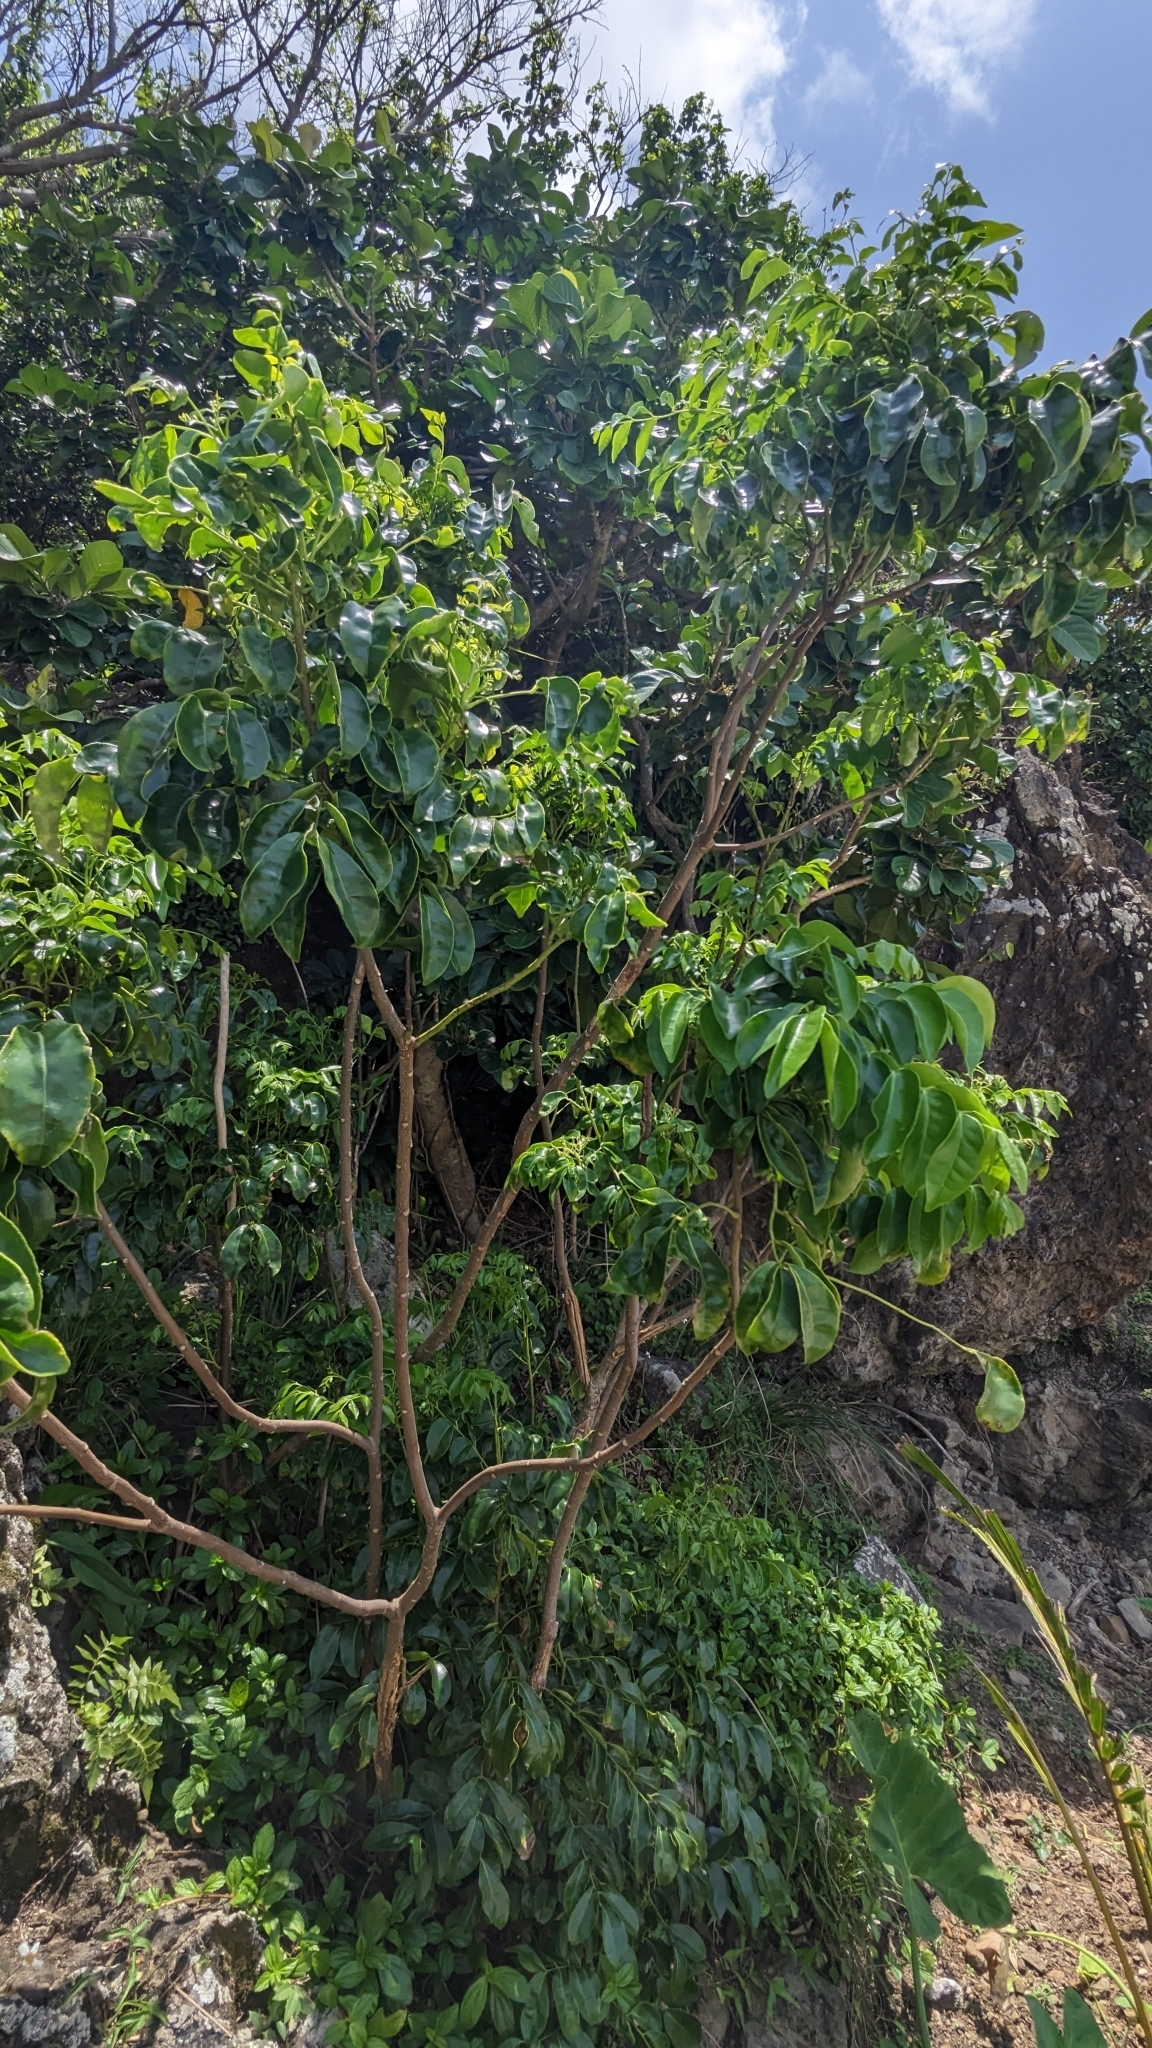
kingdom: Plantae
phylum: Tracheophyta
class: Magnoliopsida
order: Sapindales
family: Rutaceae
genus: Murraya
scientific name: Murraya crenulata
